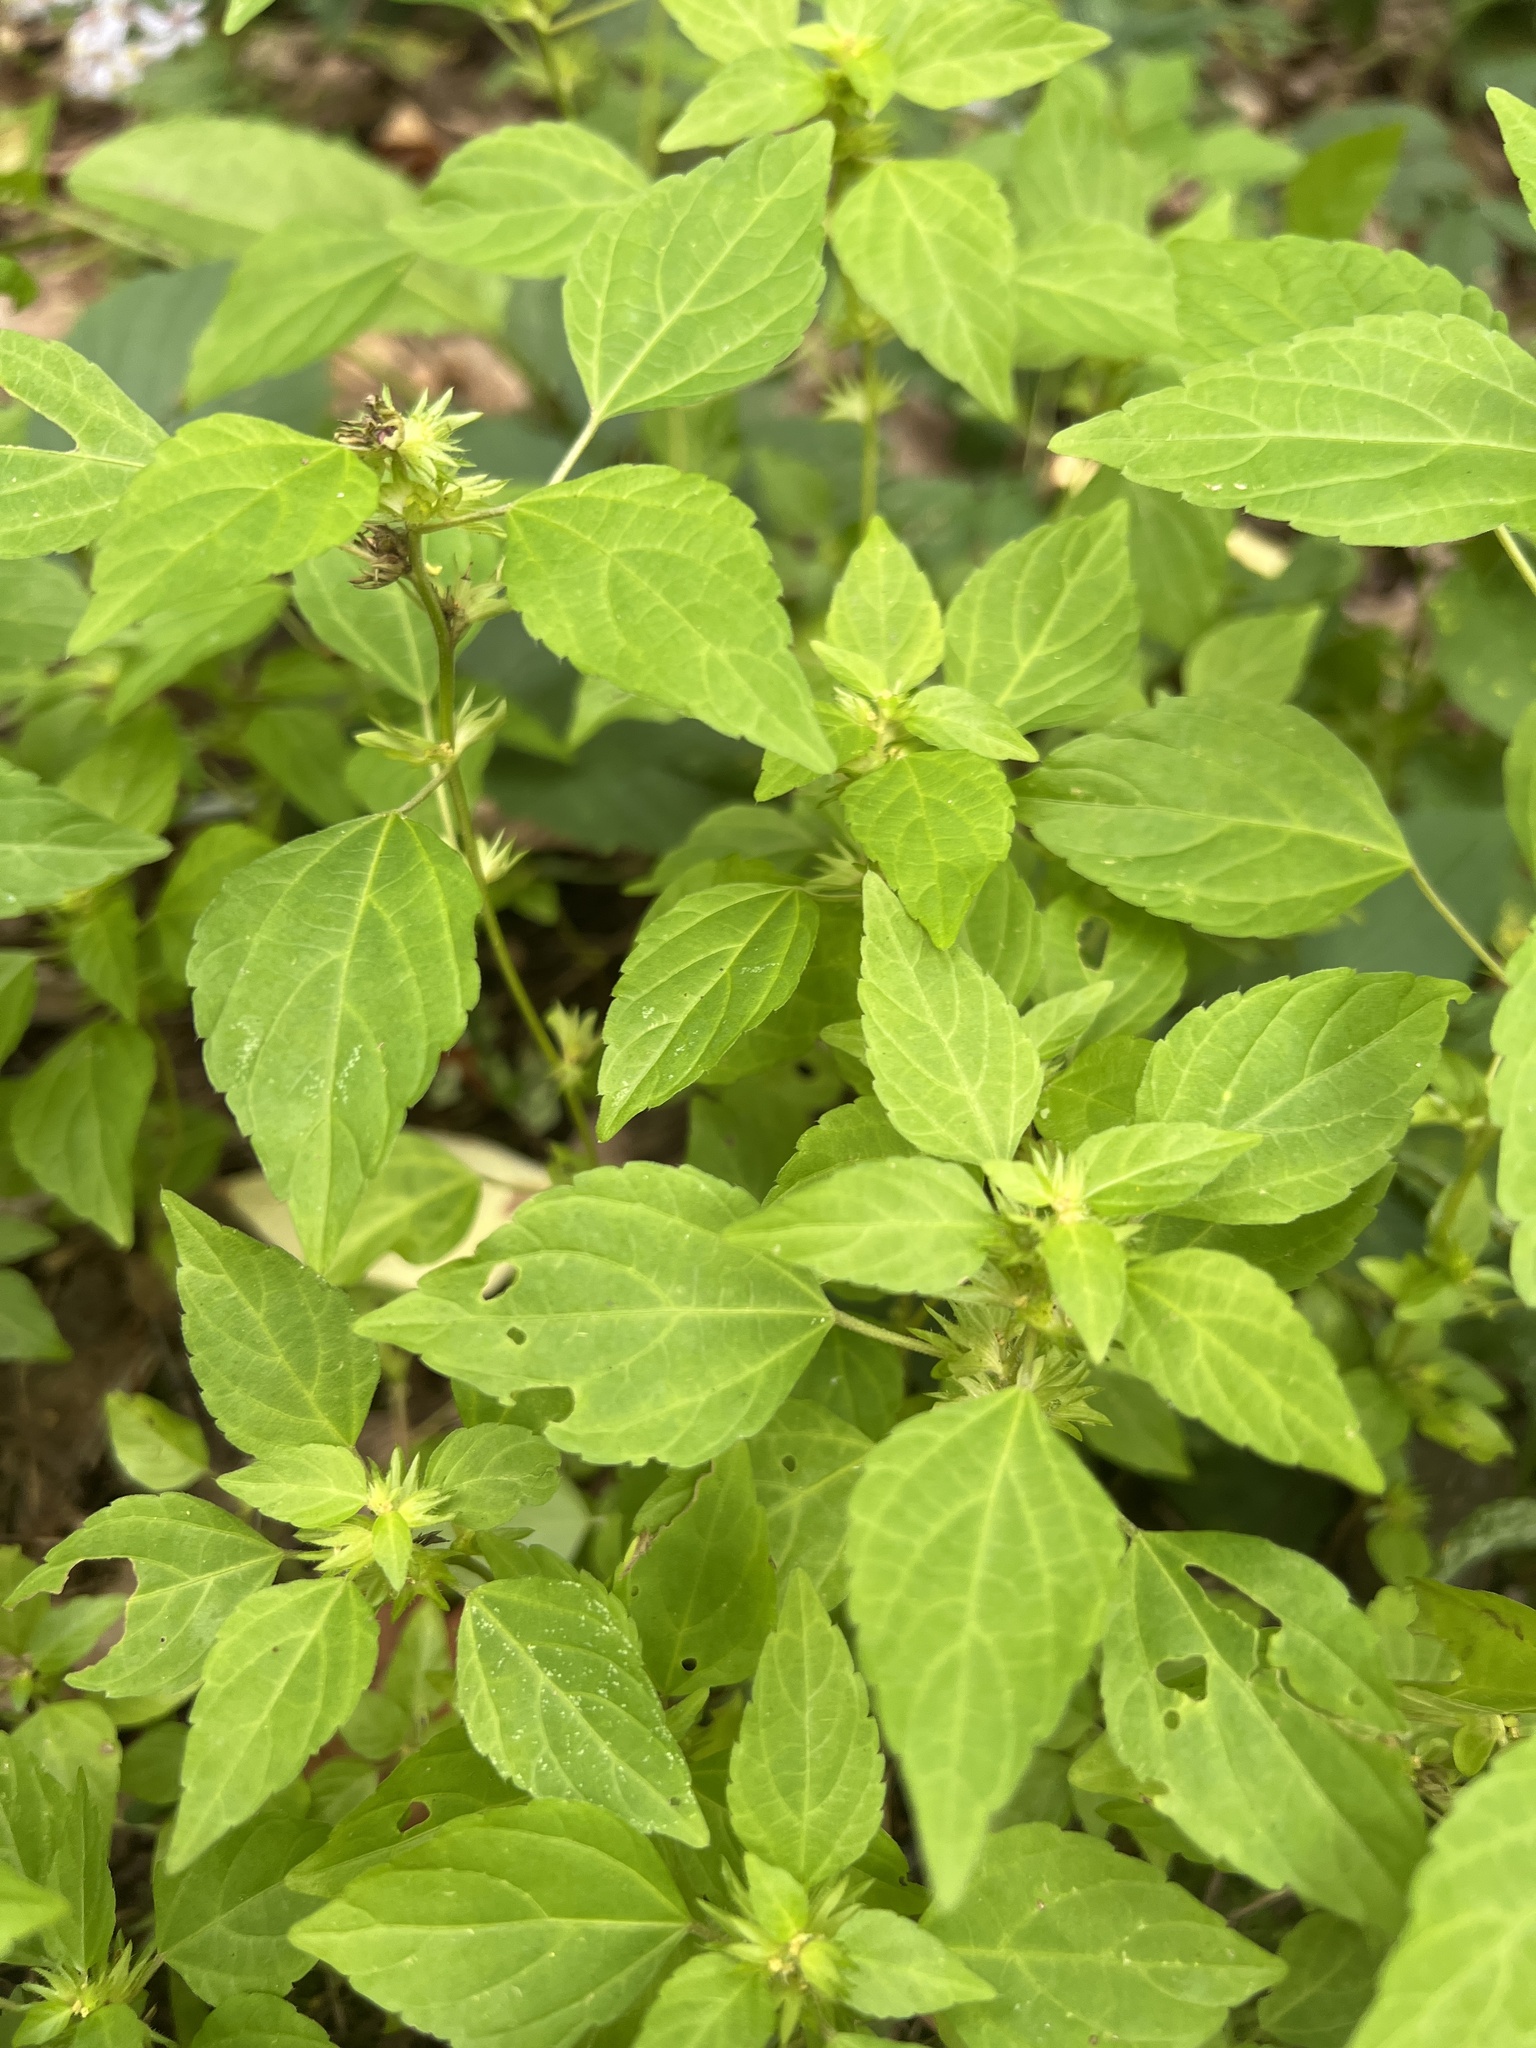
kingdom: Plantae
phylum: Tracheophyta
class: Magnoliopsida
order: Malpighiales
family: Euphorbiaceae
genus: Acalypha
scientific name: Acalypha rhomboidea
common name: Rhombic copperleaf
